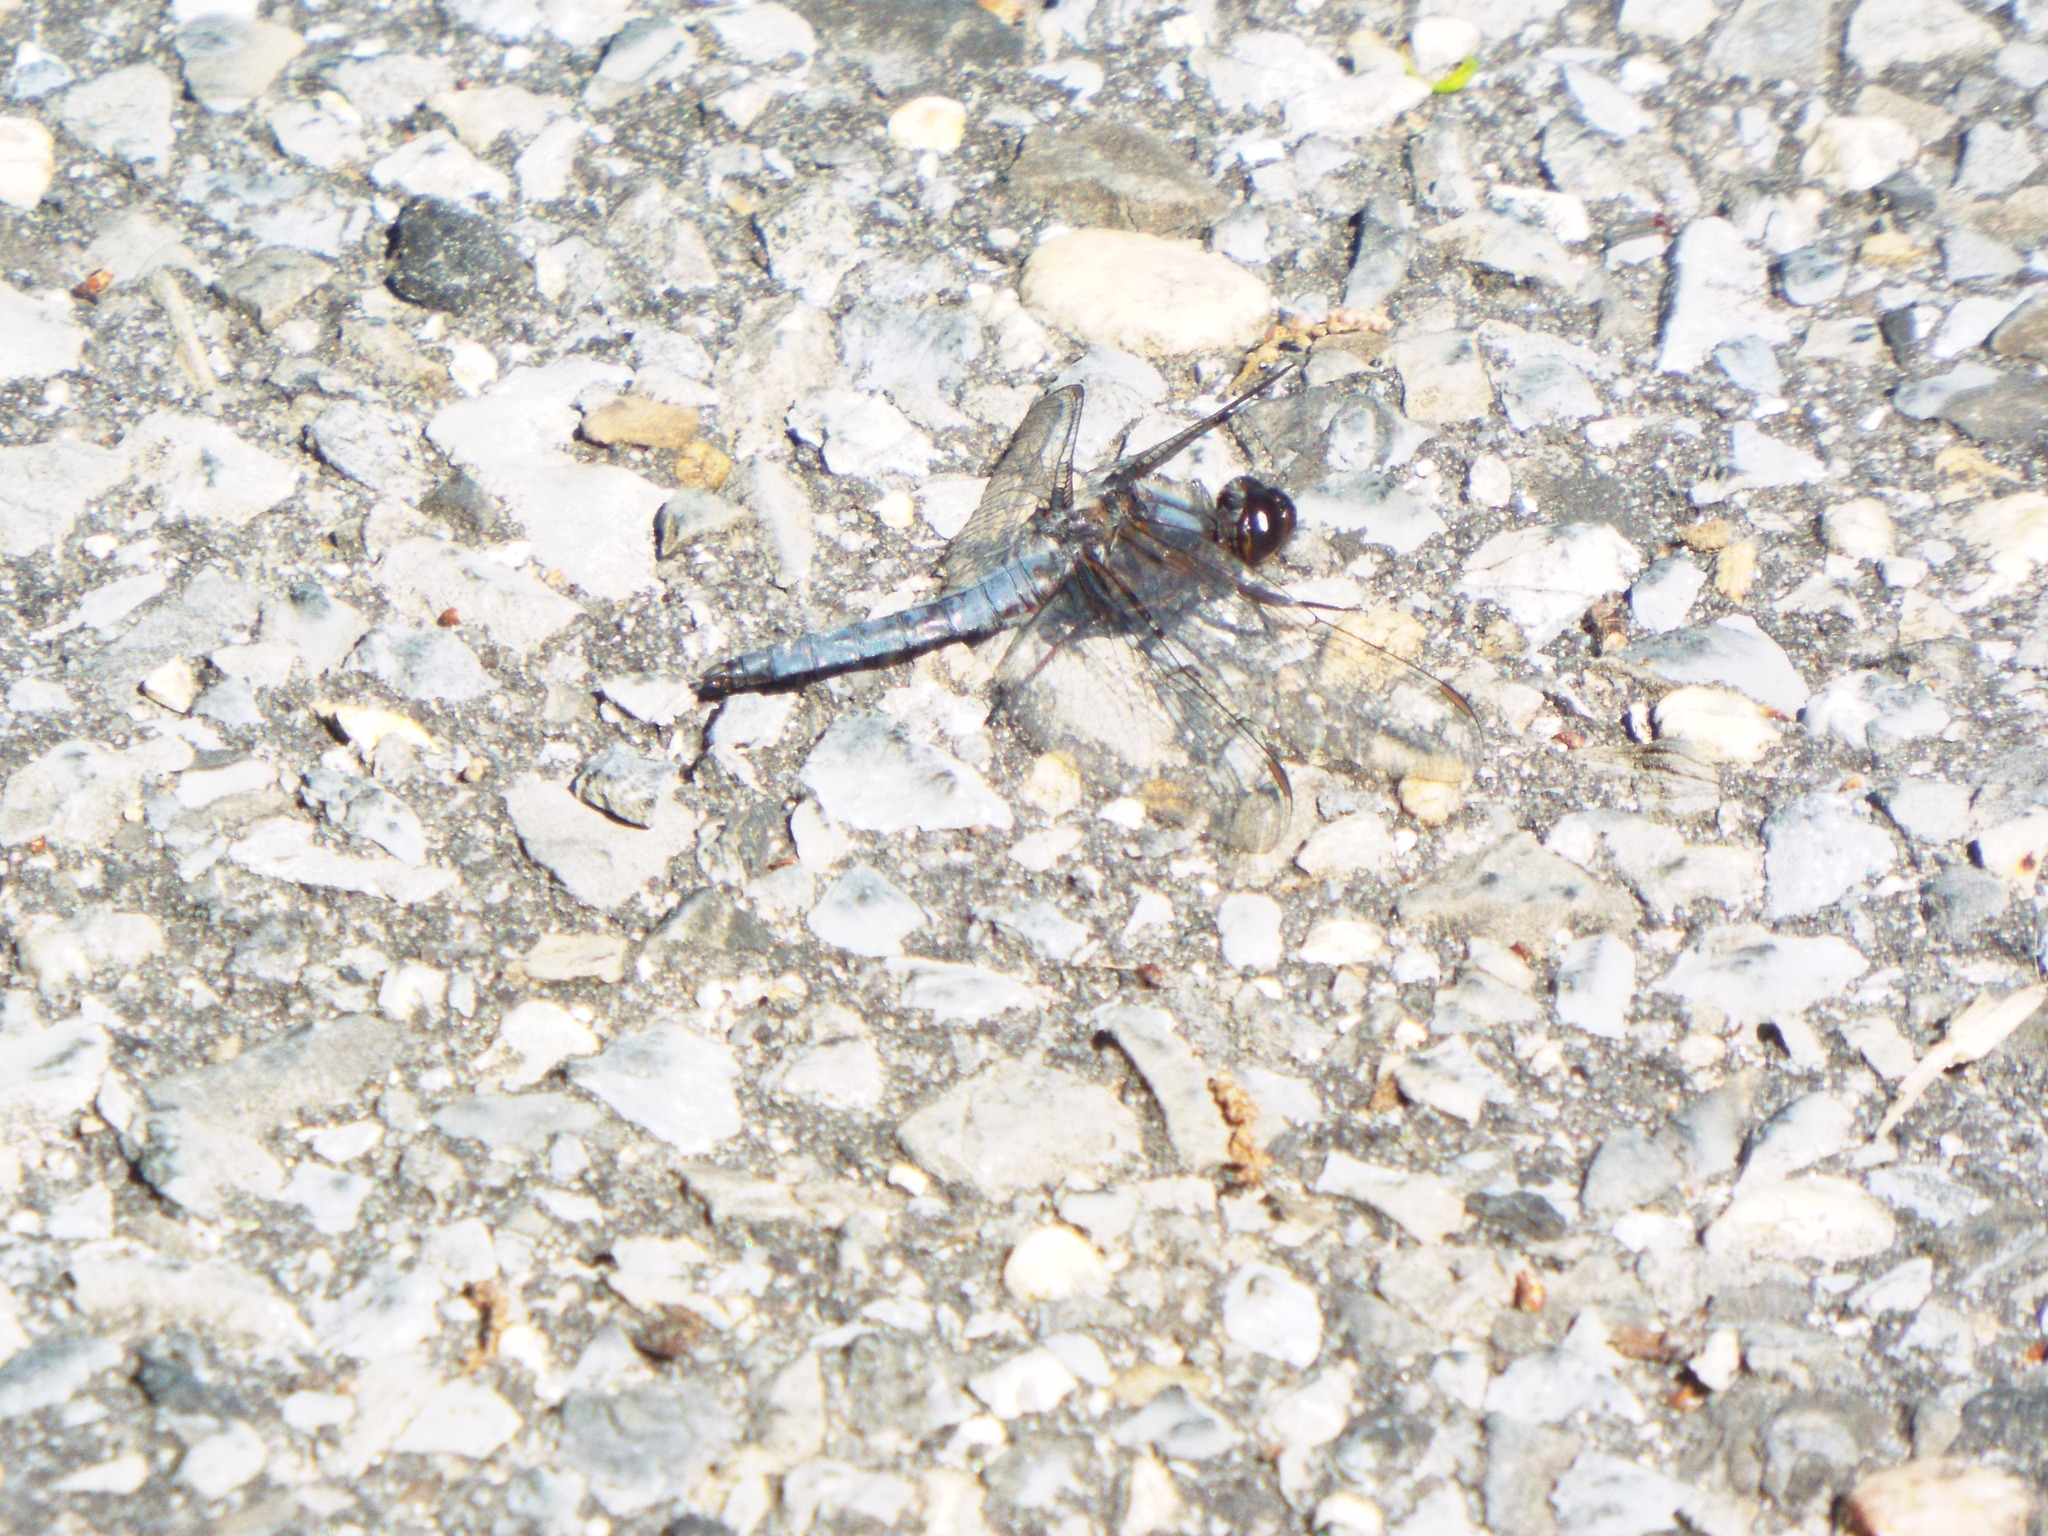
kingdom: Animalia
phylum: Arthropoda
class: Insecta
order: Odonata
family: Libellulidae
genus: Ladona
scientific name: Ladona deplanata
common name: Blue corporal
